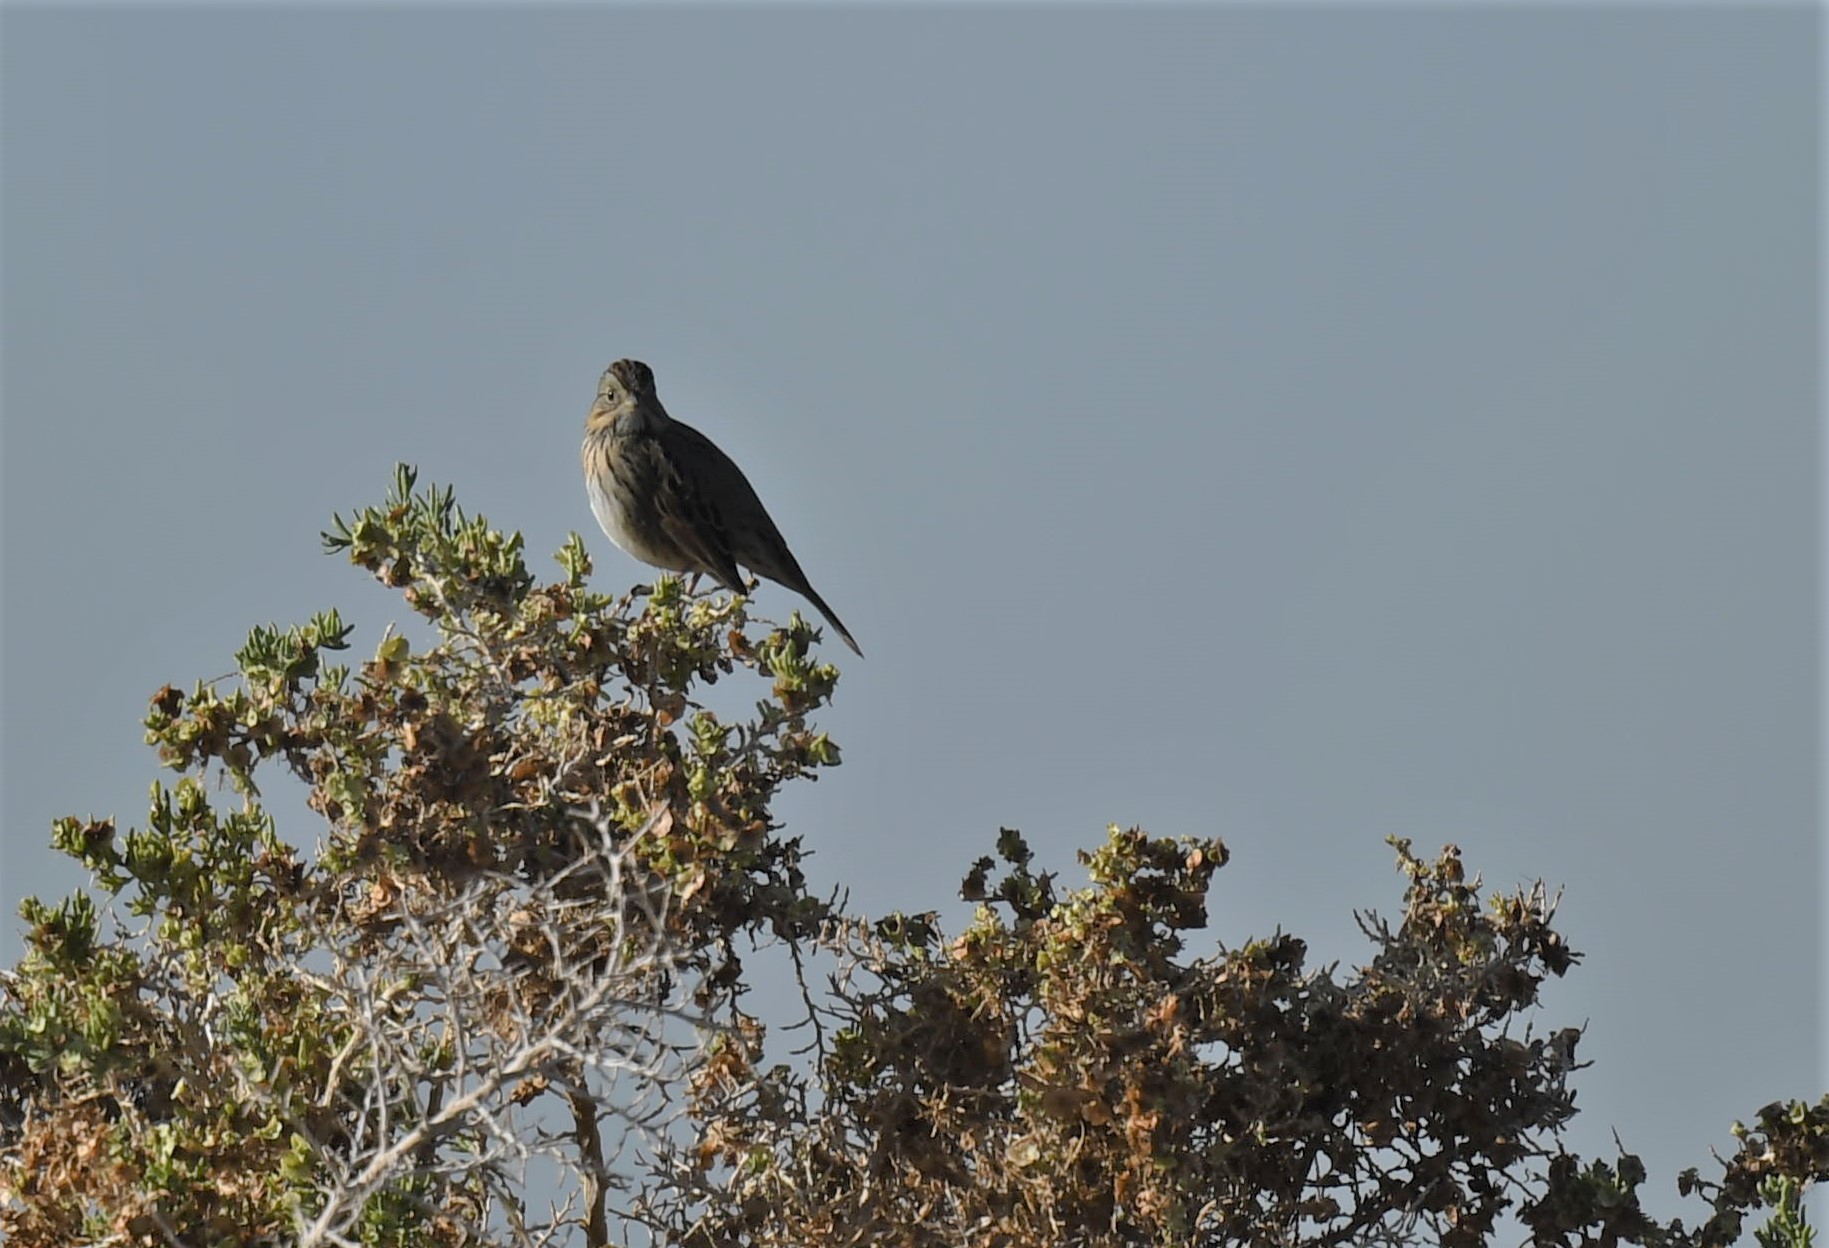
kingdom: Animalia
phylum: Chordata
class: Aves
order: Passeriformes
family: Passerellidae
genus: Melospiza
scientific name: Melospiza lincolnii
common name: Lincoln's sparrow
